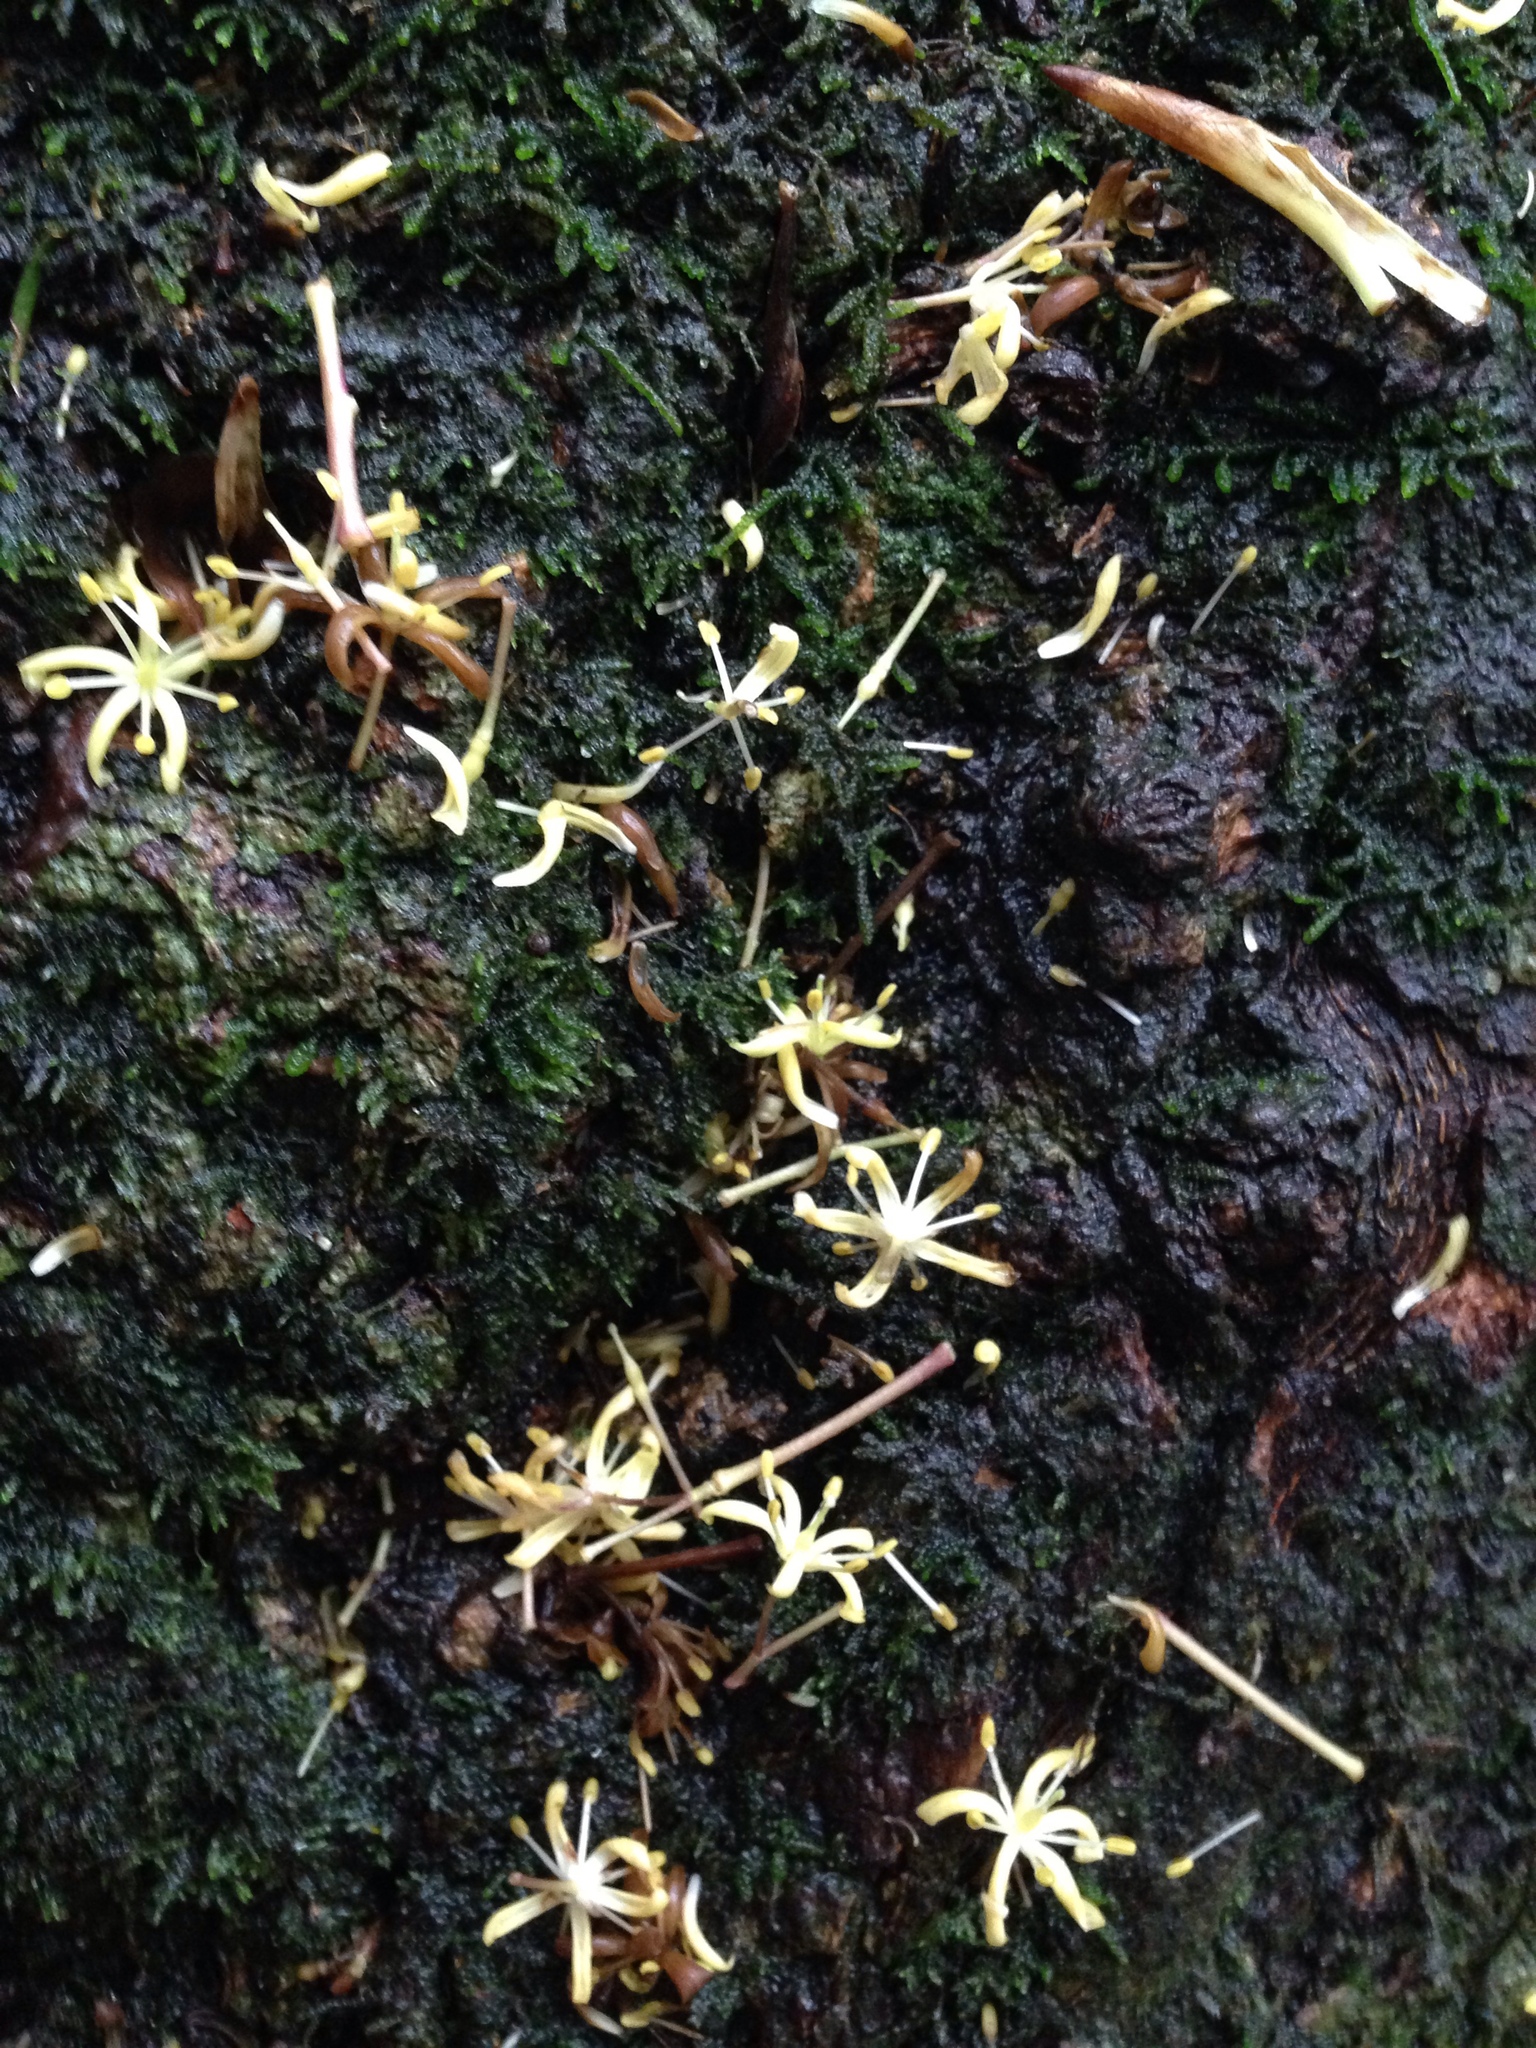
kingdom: Plantae
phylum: Tracheophyta
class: Magnoliopsida
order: Apiales
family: Pittosporaceae
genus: Pittosporum
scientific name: Pittosporum eugenioides
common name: Lemonwood
